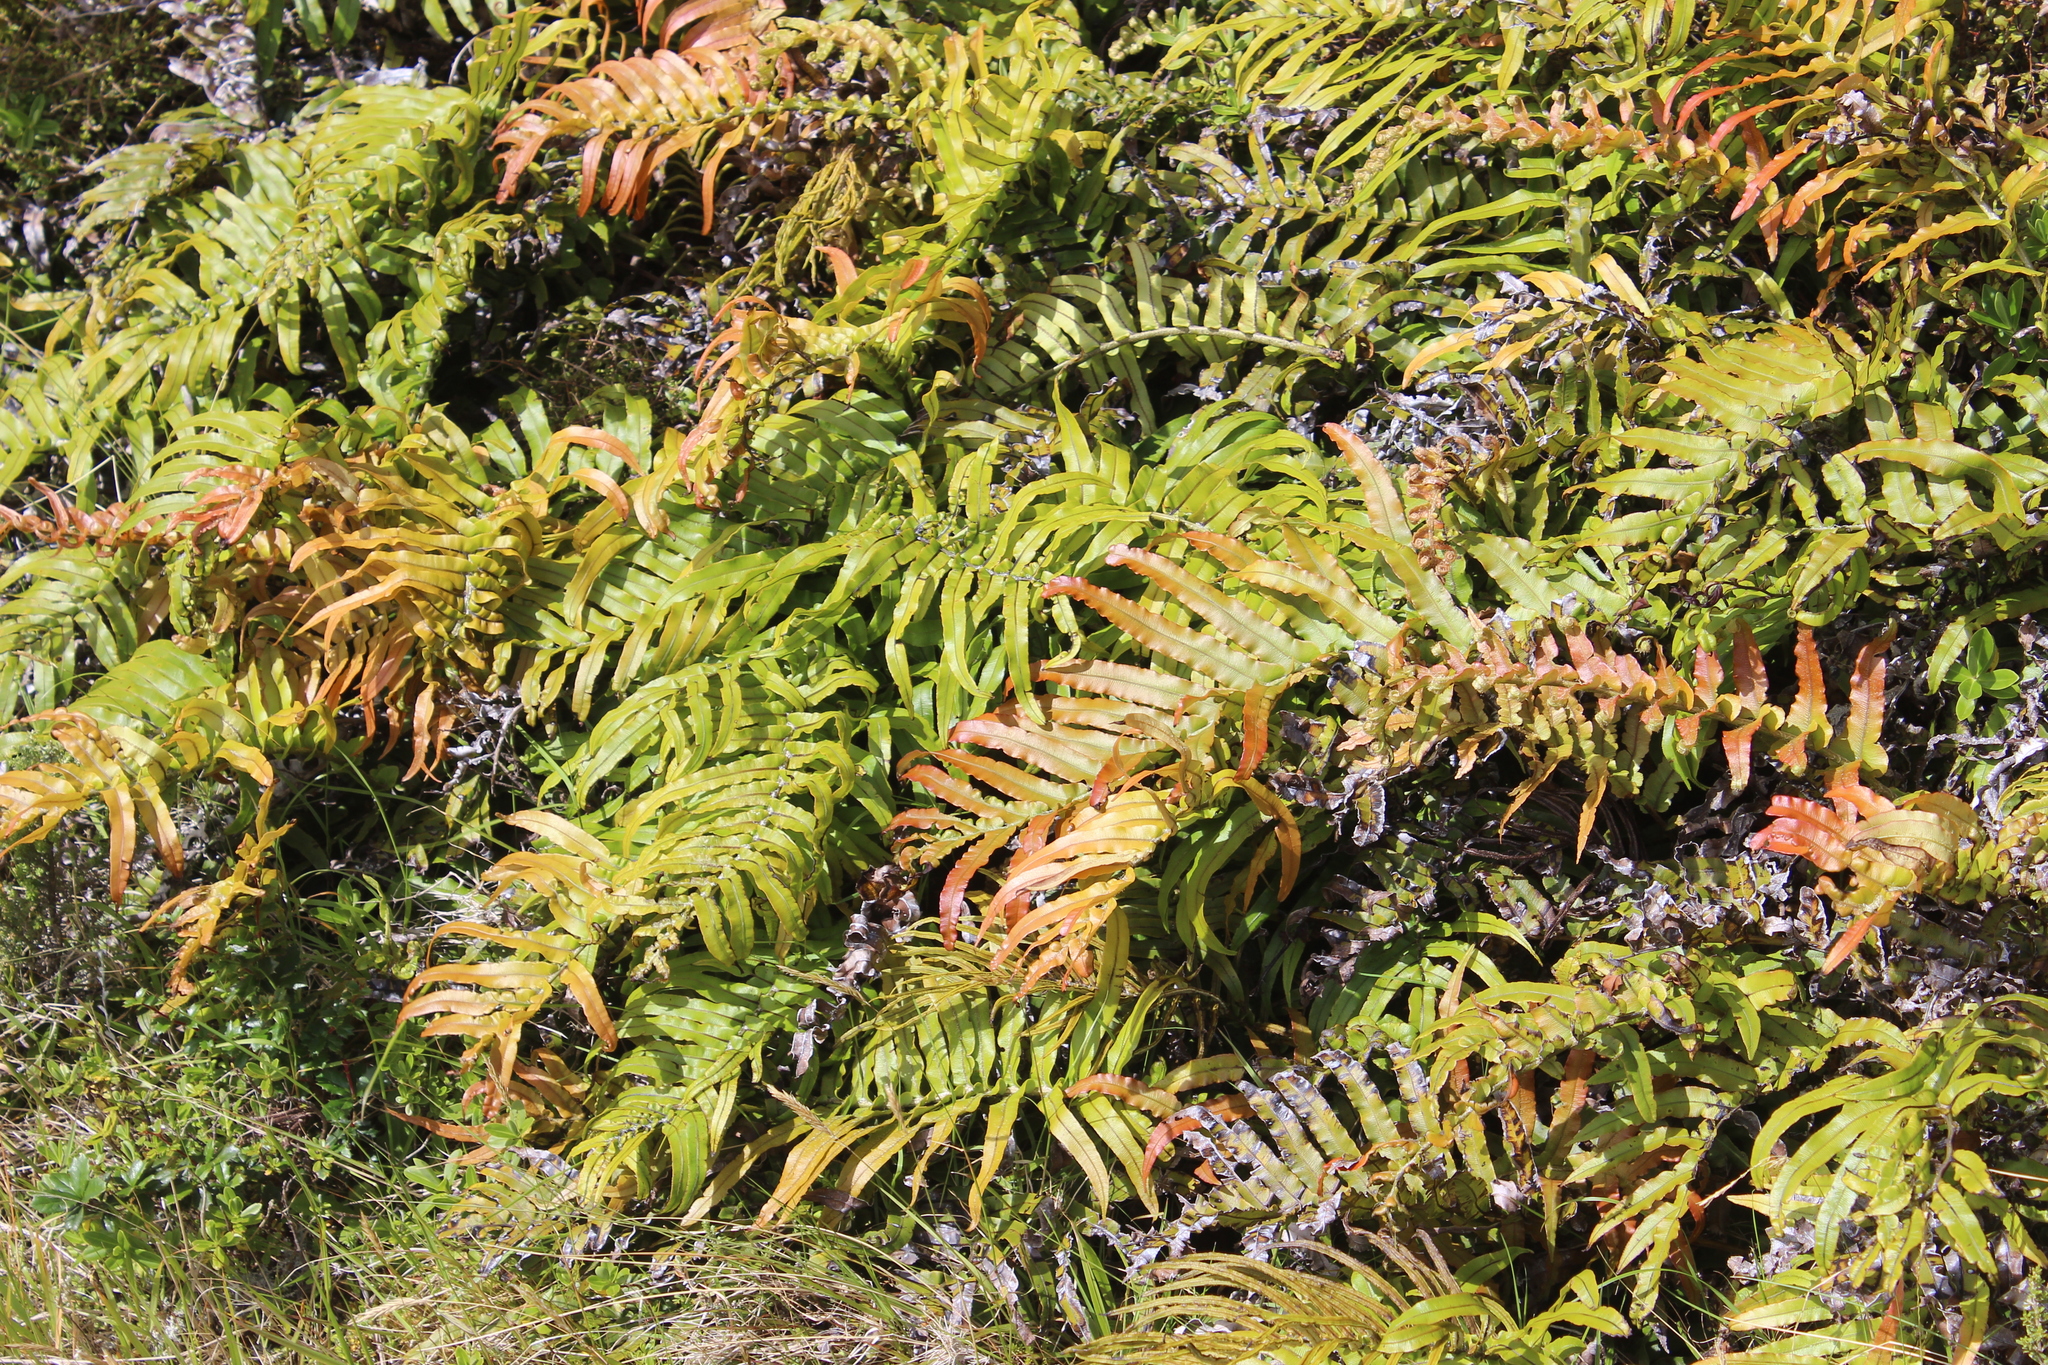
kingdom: Plantae
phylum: Tracheophyta
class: Polypodiopsida
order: Polypodiales
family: Blechnaceae
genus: Parablechnum
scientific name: Parablechnum novae-zelandiae
